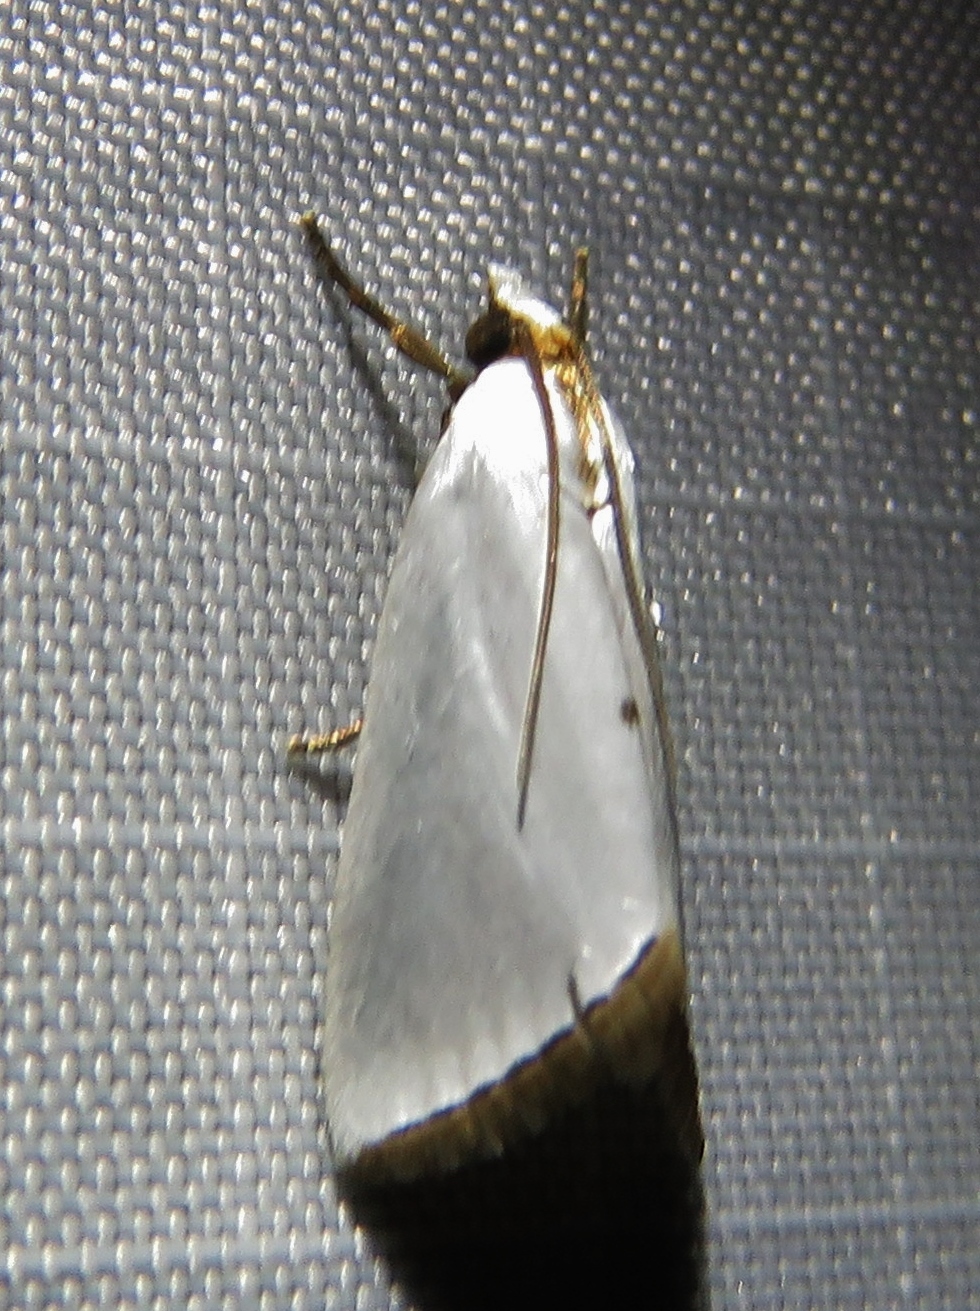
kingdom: Animalia
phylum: Arthropoda
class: Insecta
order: Lepidoptera
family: Crambidae
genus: Argyria
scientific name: Argyria nivalis
